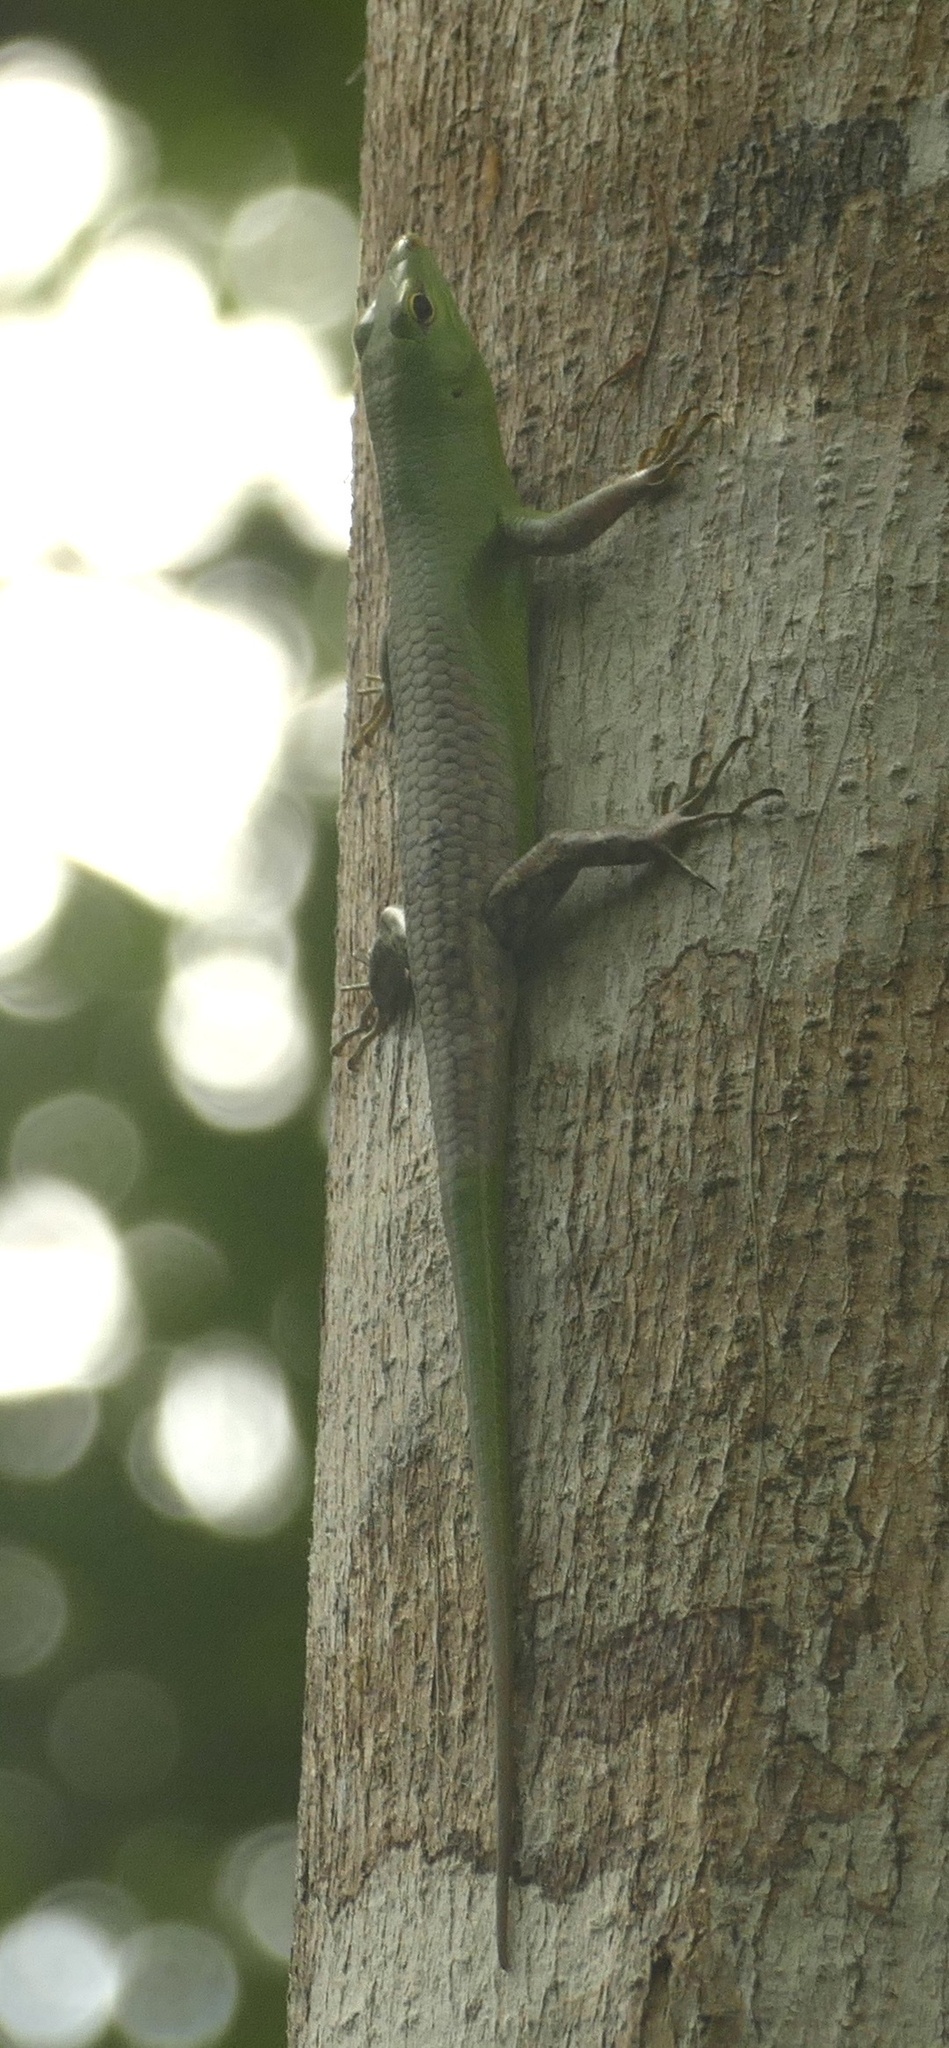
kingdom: Animalia
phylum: Chordata
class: Squamata
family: Scincidae
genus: Lamprolepis
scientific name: Lamprolepis smaragdina
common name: Emerald skink
